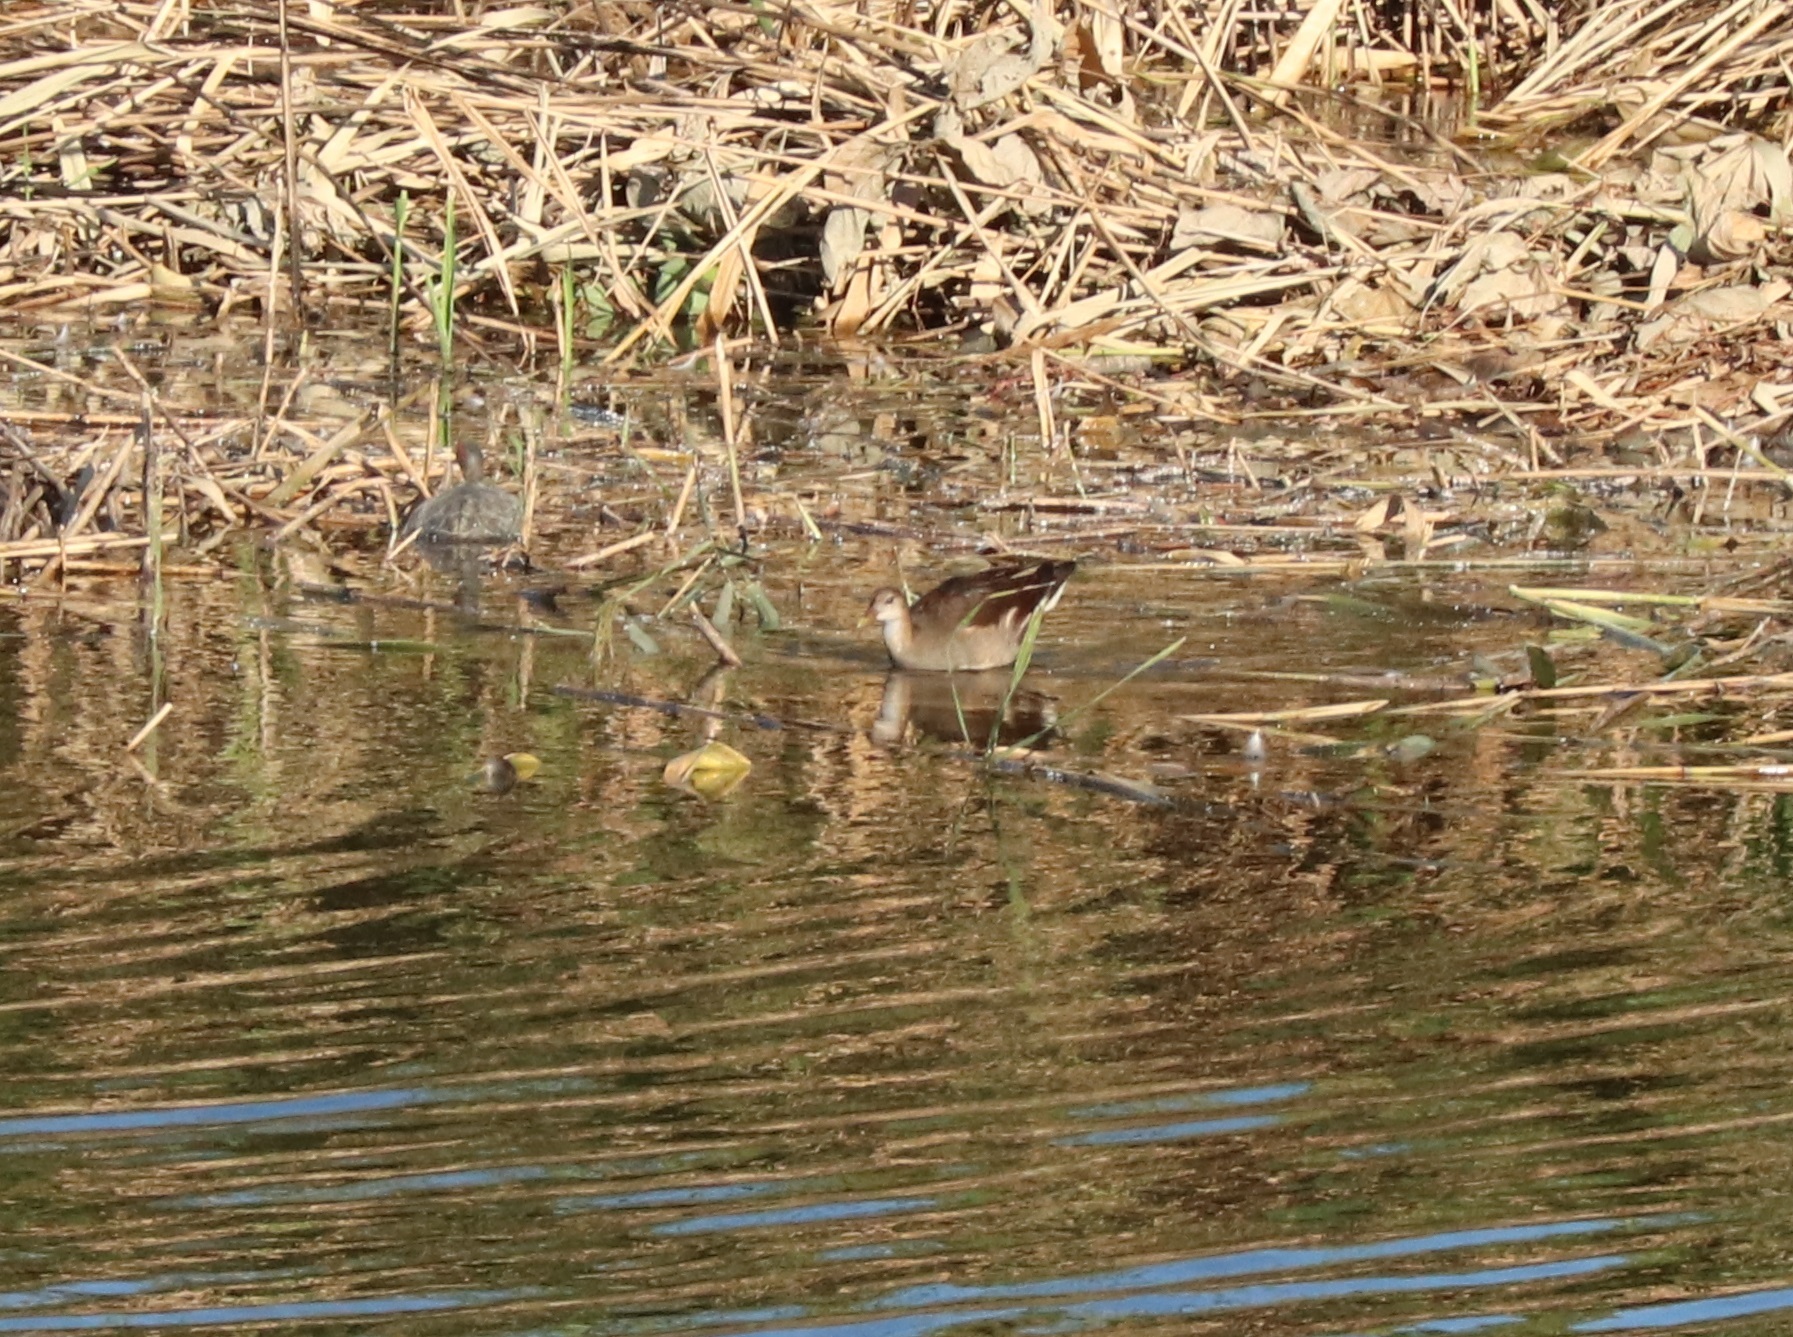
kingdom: Animalia
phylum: Chordata
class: Aves
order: Gruiformes
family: Rallidae
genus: Gallinula
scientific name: Gallinula chloropus
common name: Common moorhen
